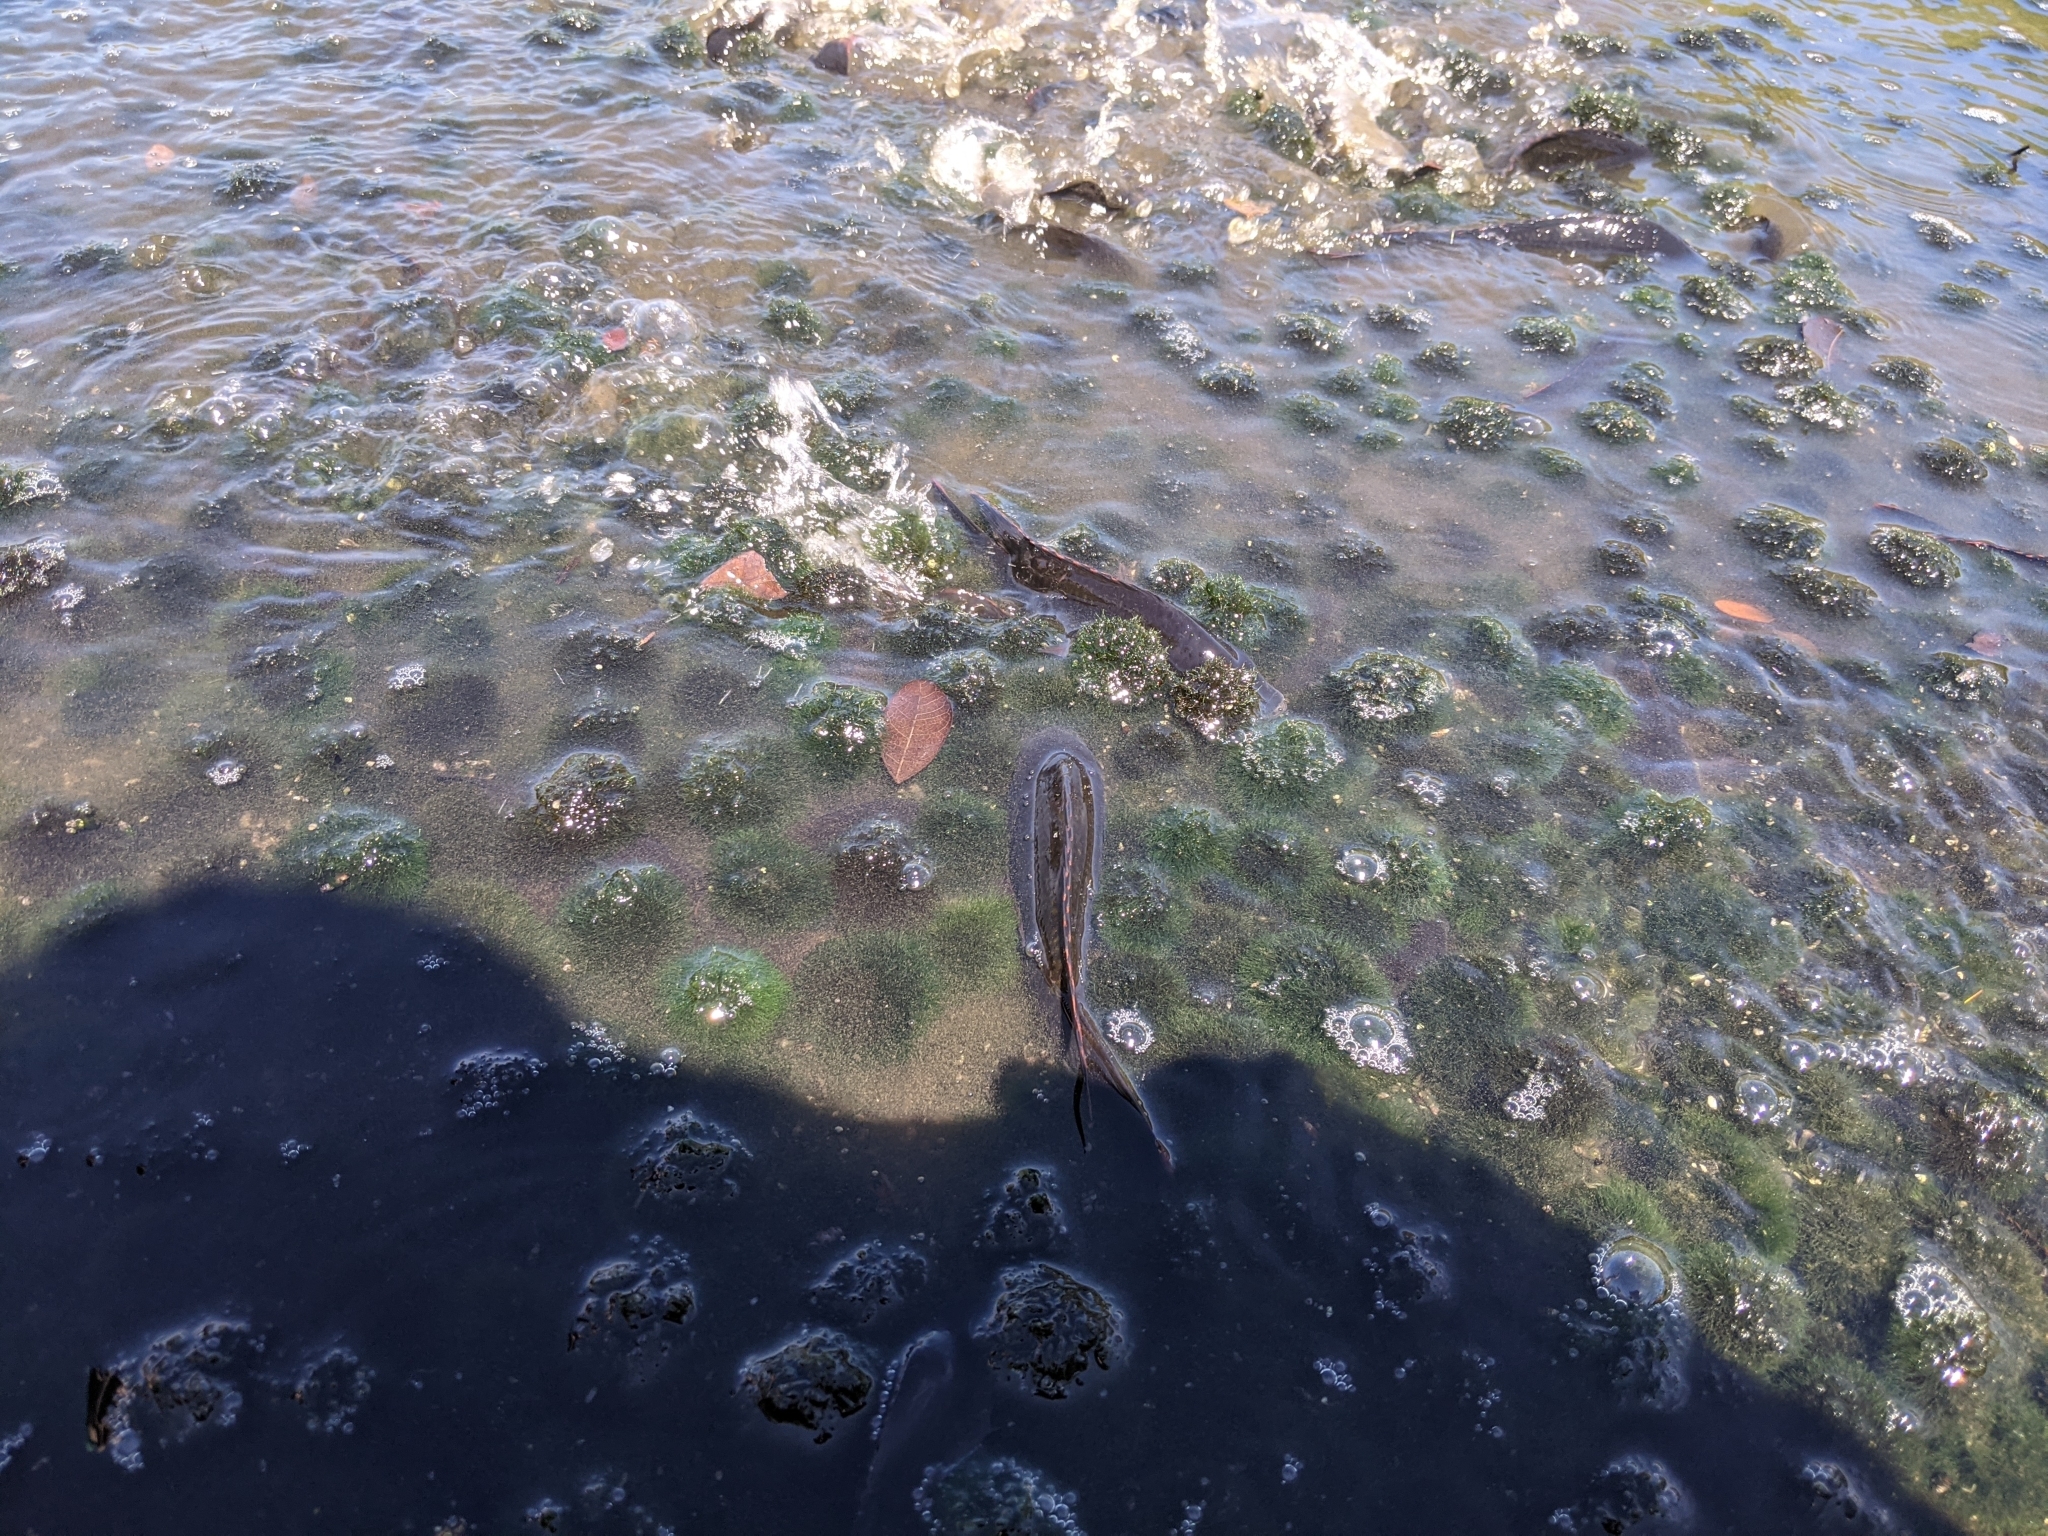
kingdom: Plantae
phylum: Chlorophyta
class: Ulvophyceae
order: Cladophorales
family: Cladophoraceae
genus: Aegagropila
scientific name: Aegagropila linnaei
